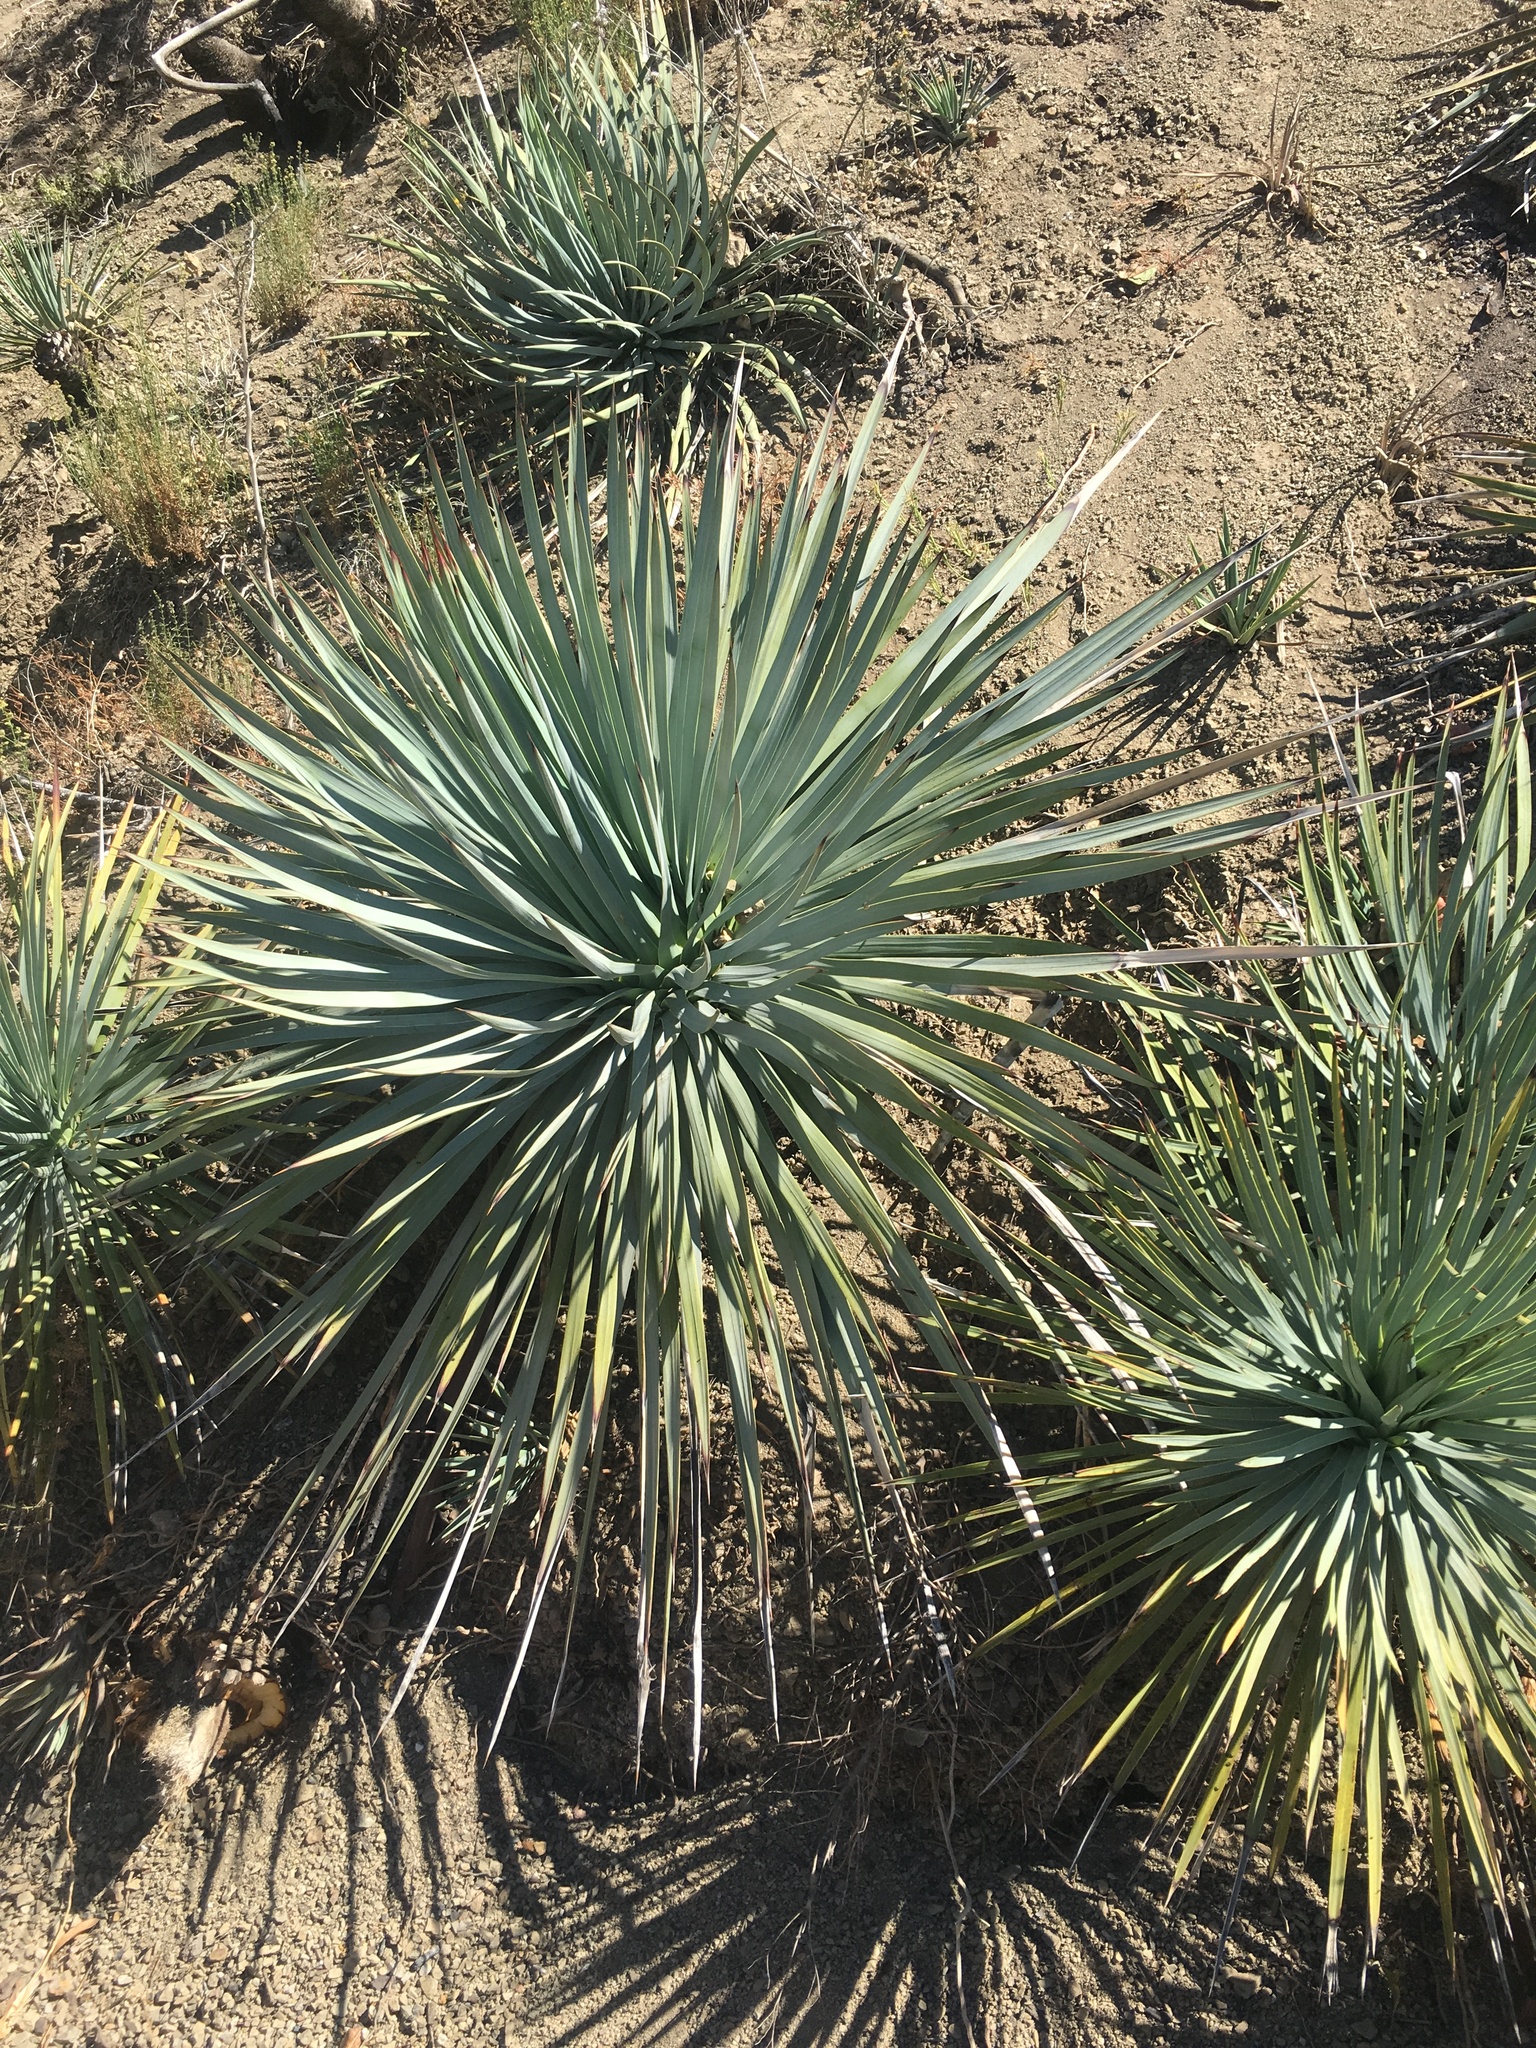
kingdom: Plantae
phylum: Tracheophyta
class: Liliopsida
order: Asparagales
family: Asparagaceae
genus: Hesperoyucca
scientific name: Hesperoyucca whipplei
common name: Our lord's-candle
